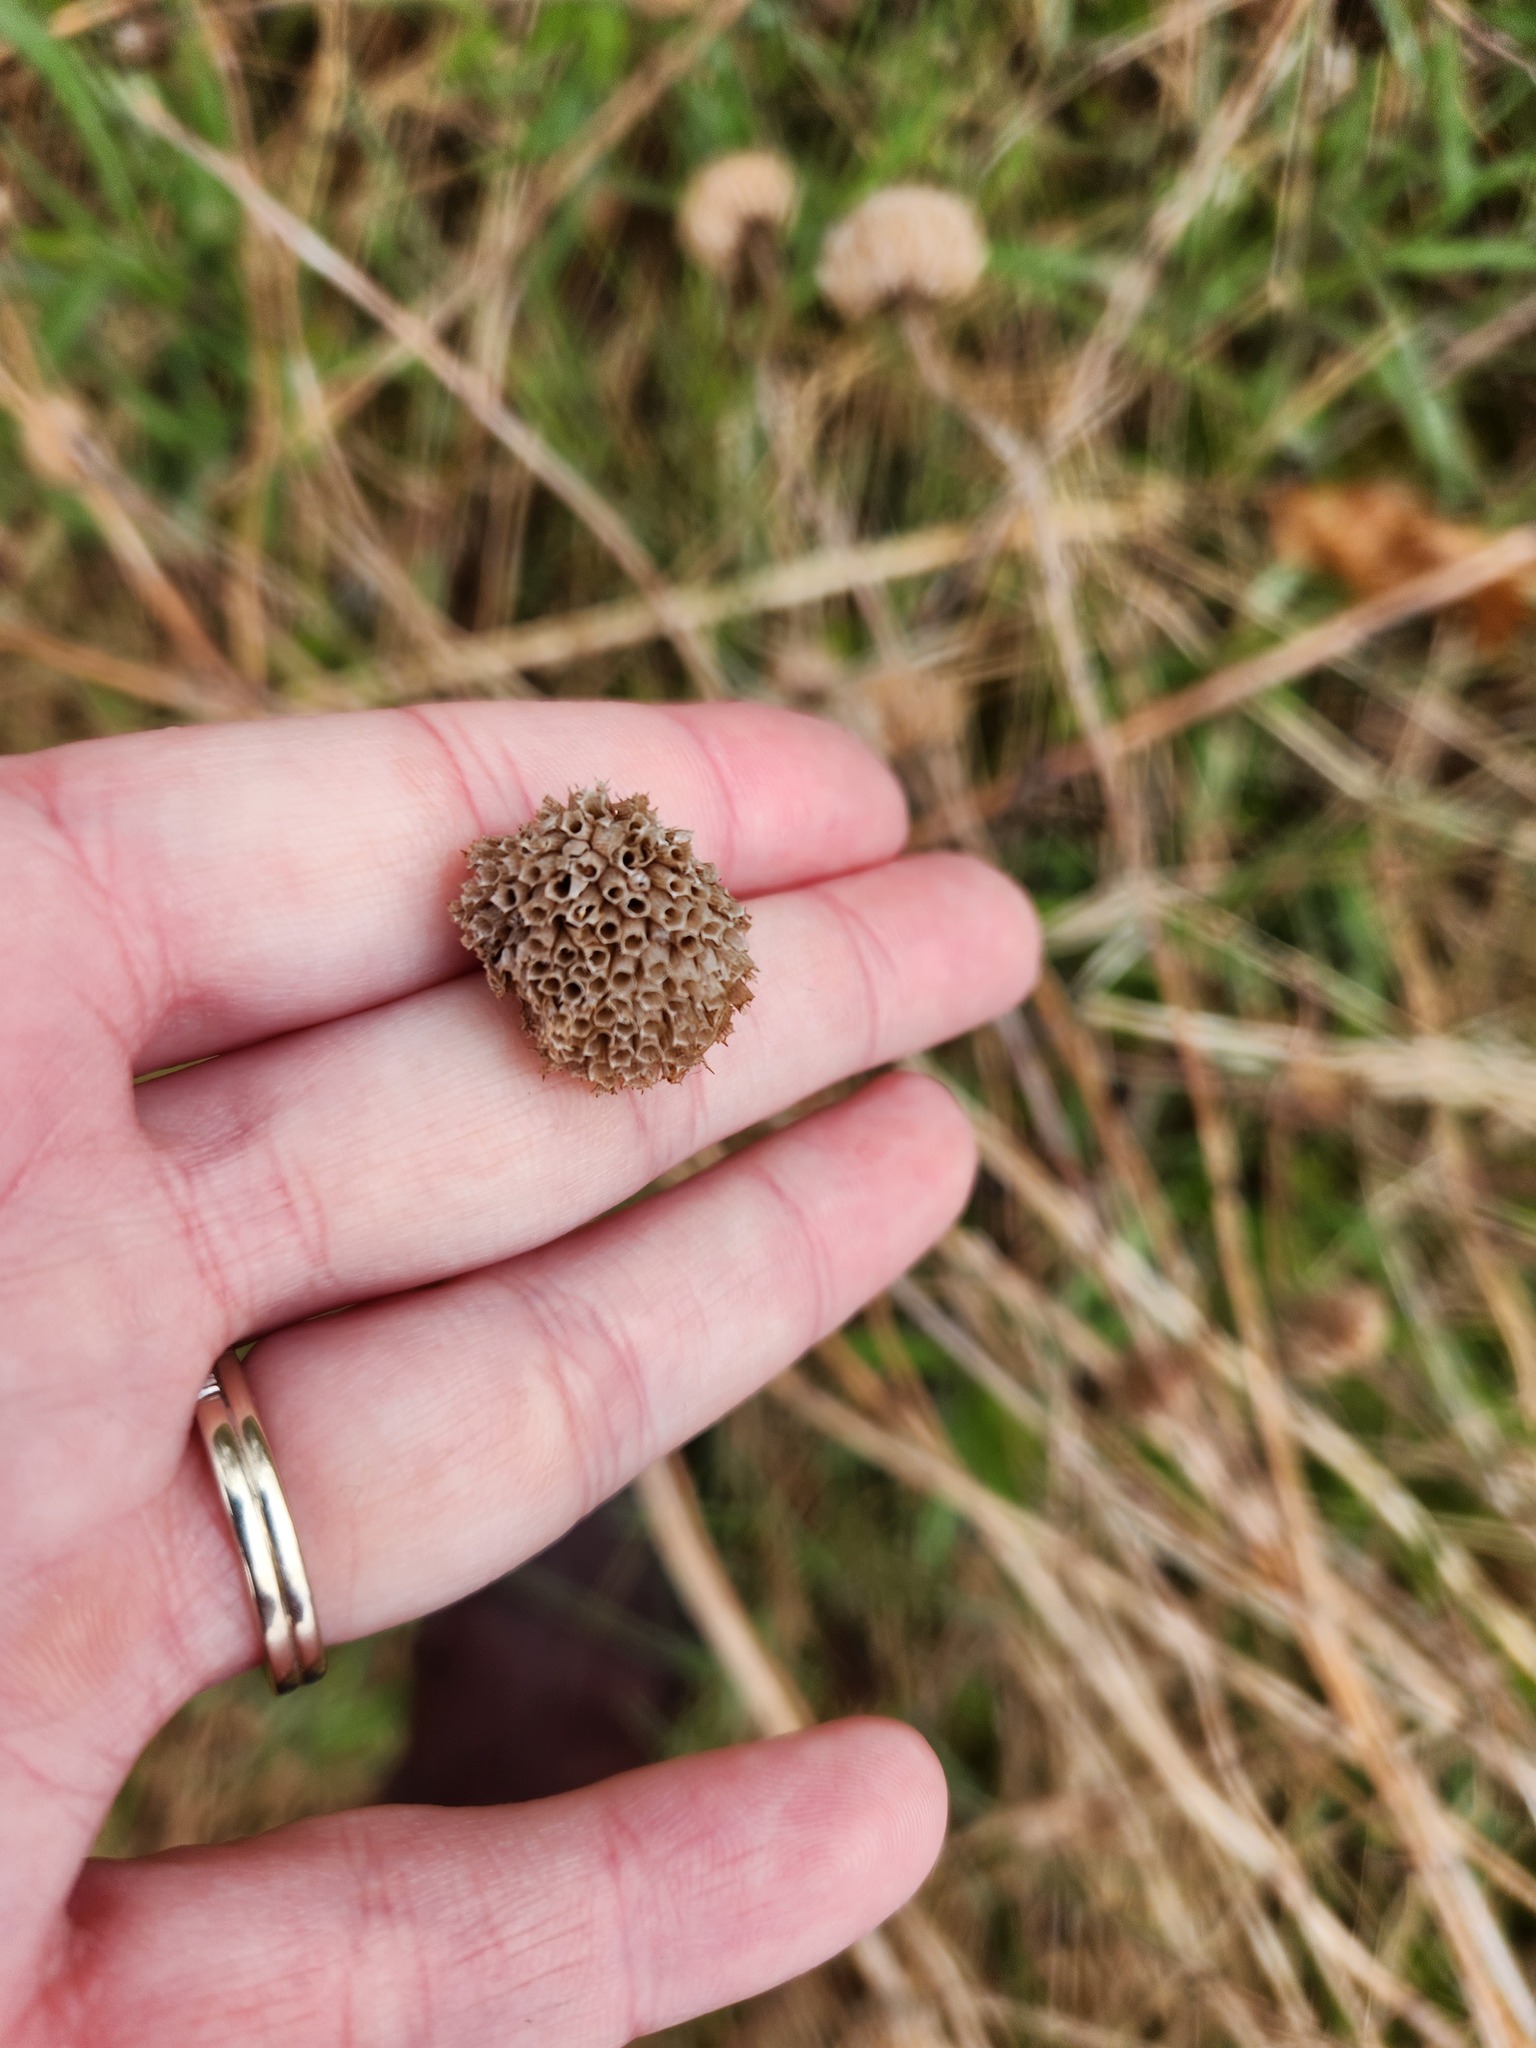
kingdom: Plantae
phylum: Tracheophyta
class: Magnoliopsida
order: Lamiales
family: Lamiaceae
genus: Monarda
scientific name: Monarda fistulosa
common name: Purple beebalm
